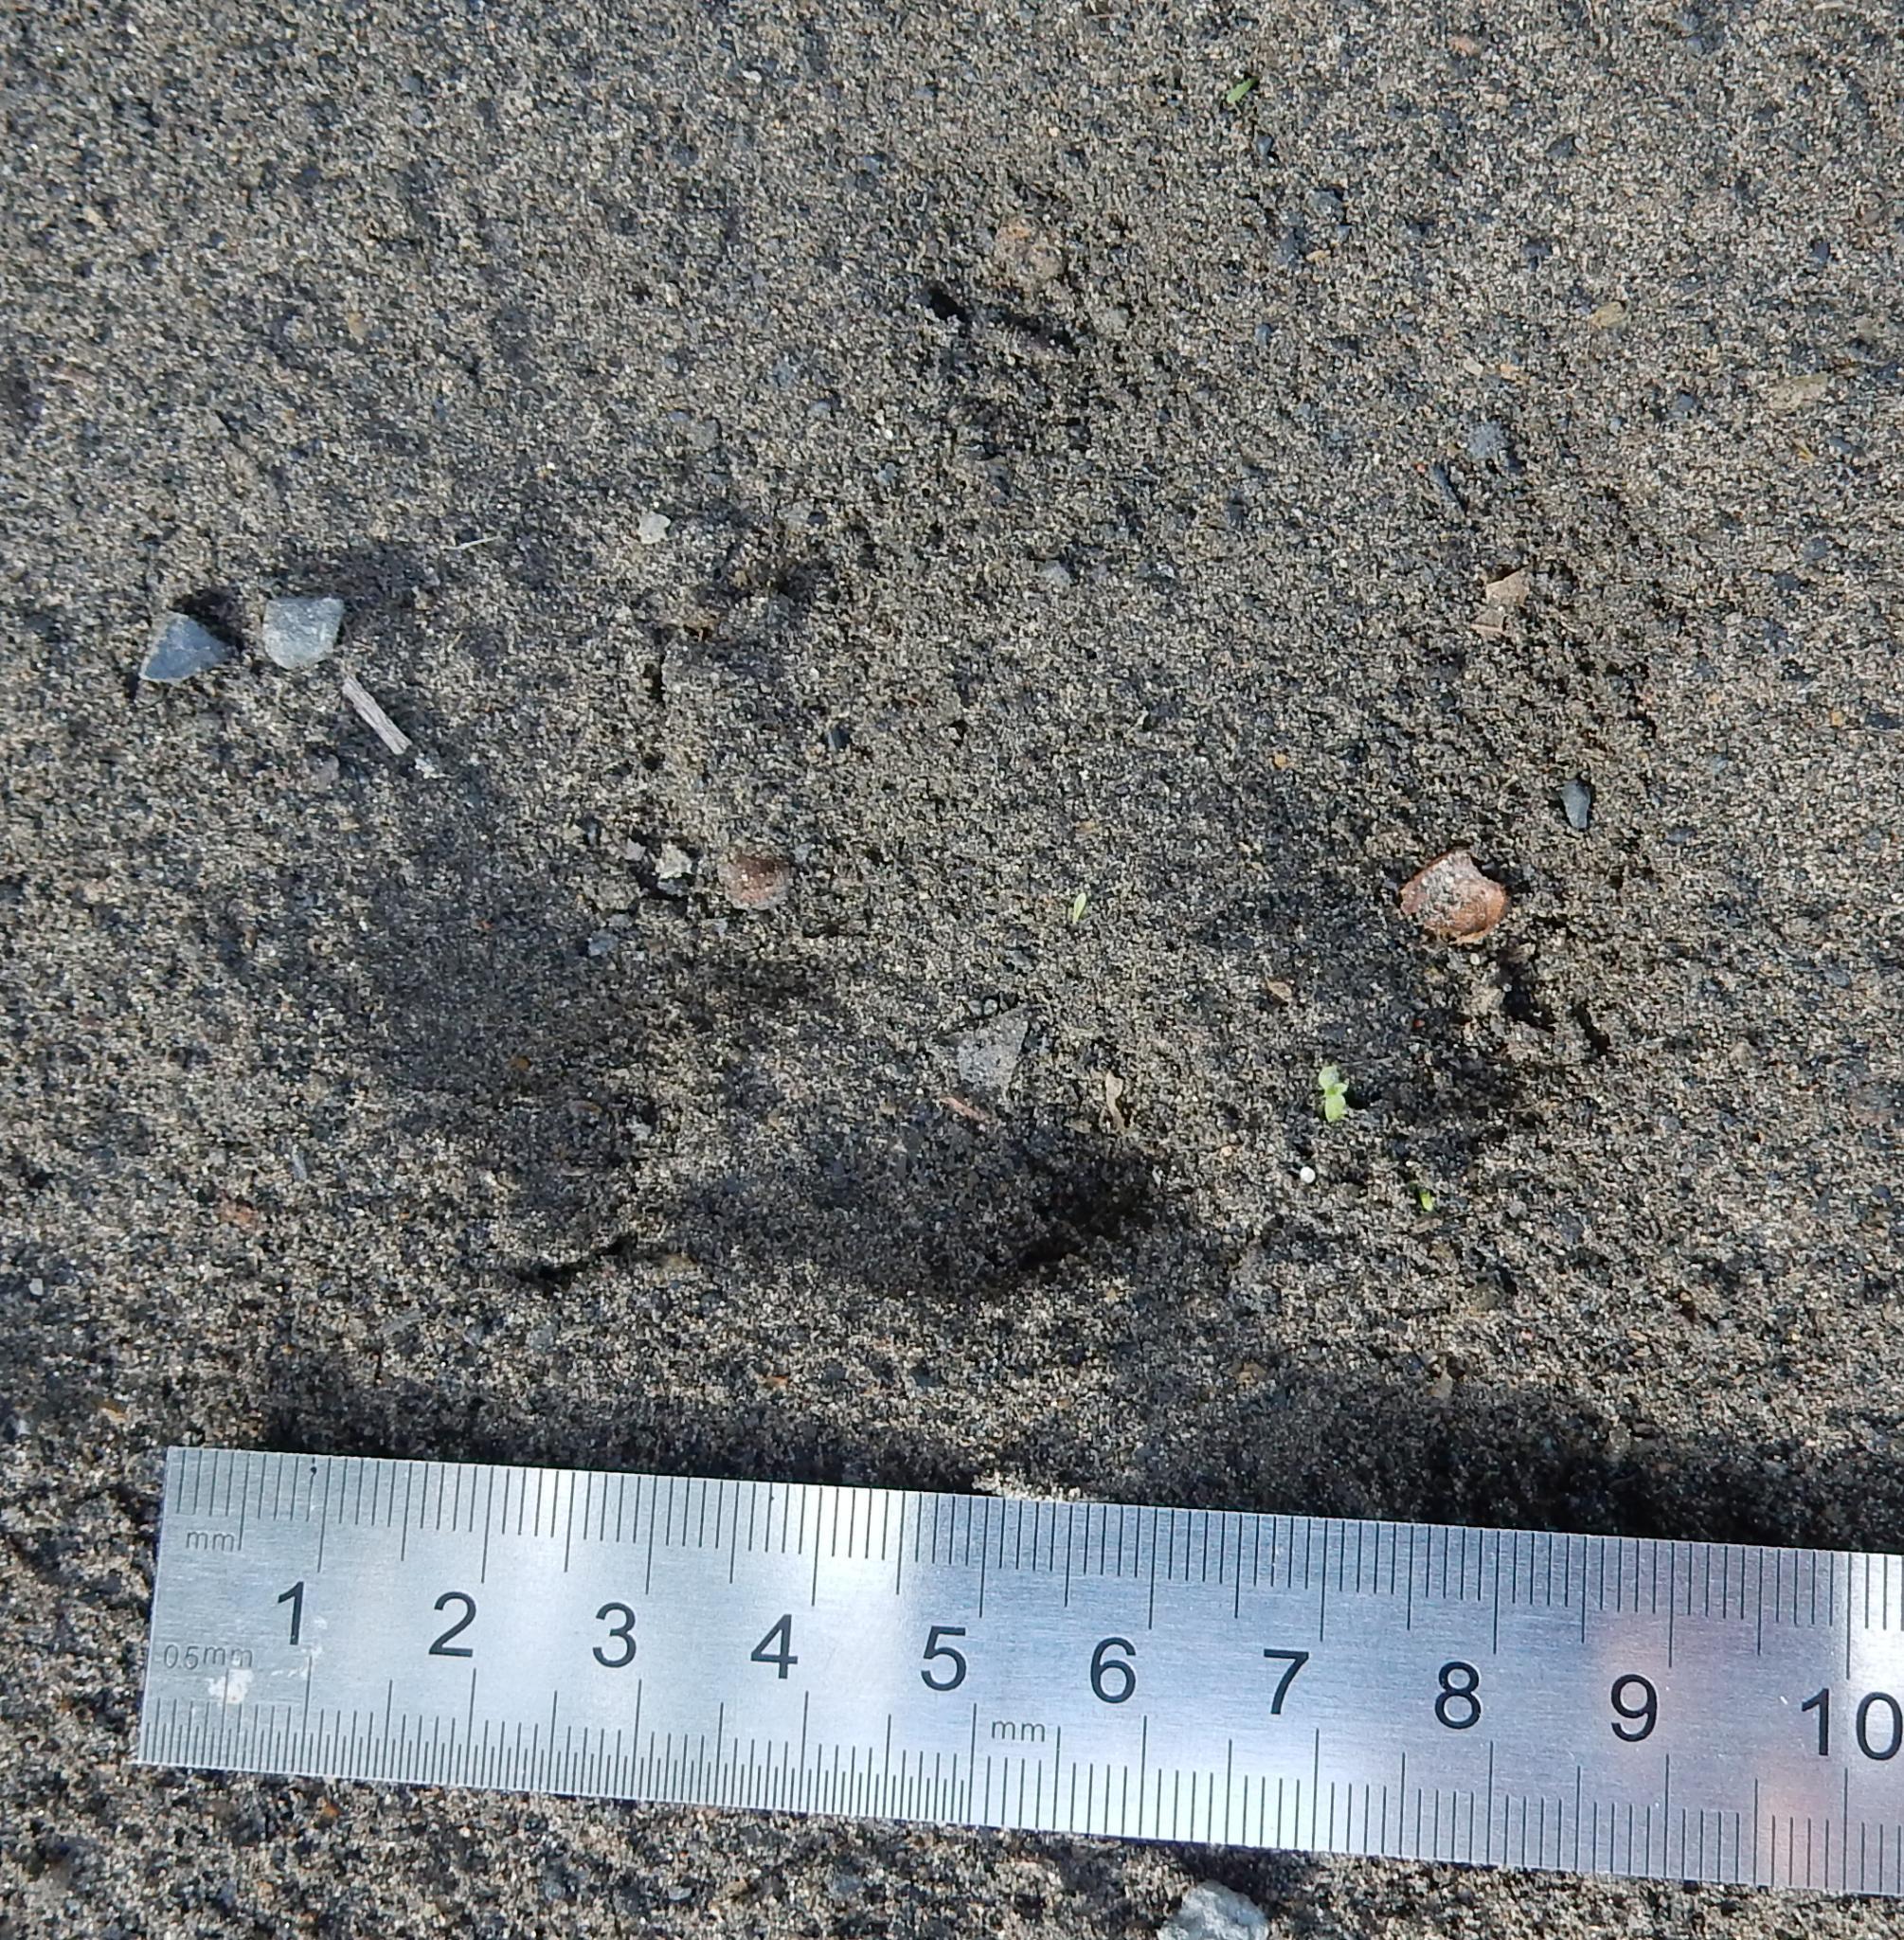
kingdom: Animalia
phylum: Chordata
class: Mammalia
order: Carnivora
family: Felidae
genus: Panthera
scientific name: Panthera pardus
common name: Leopard
